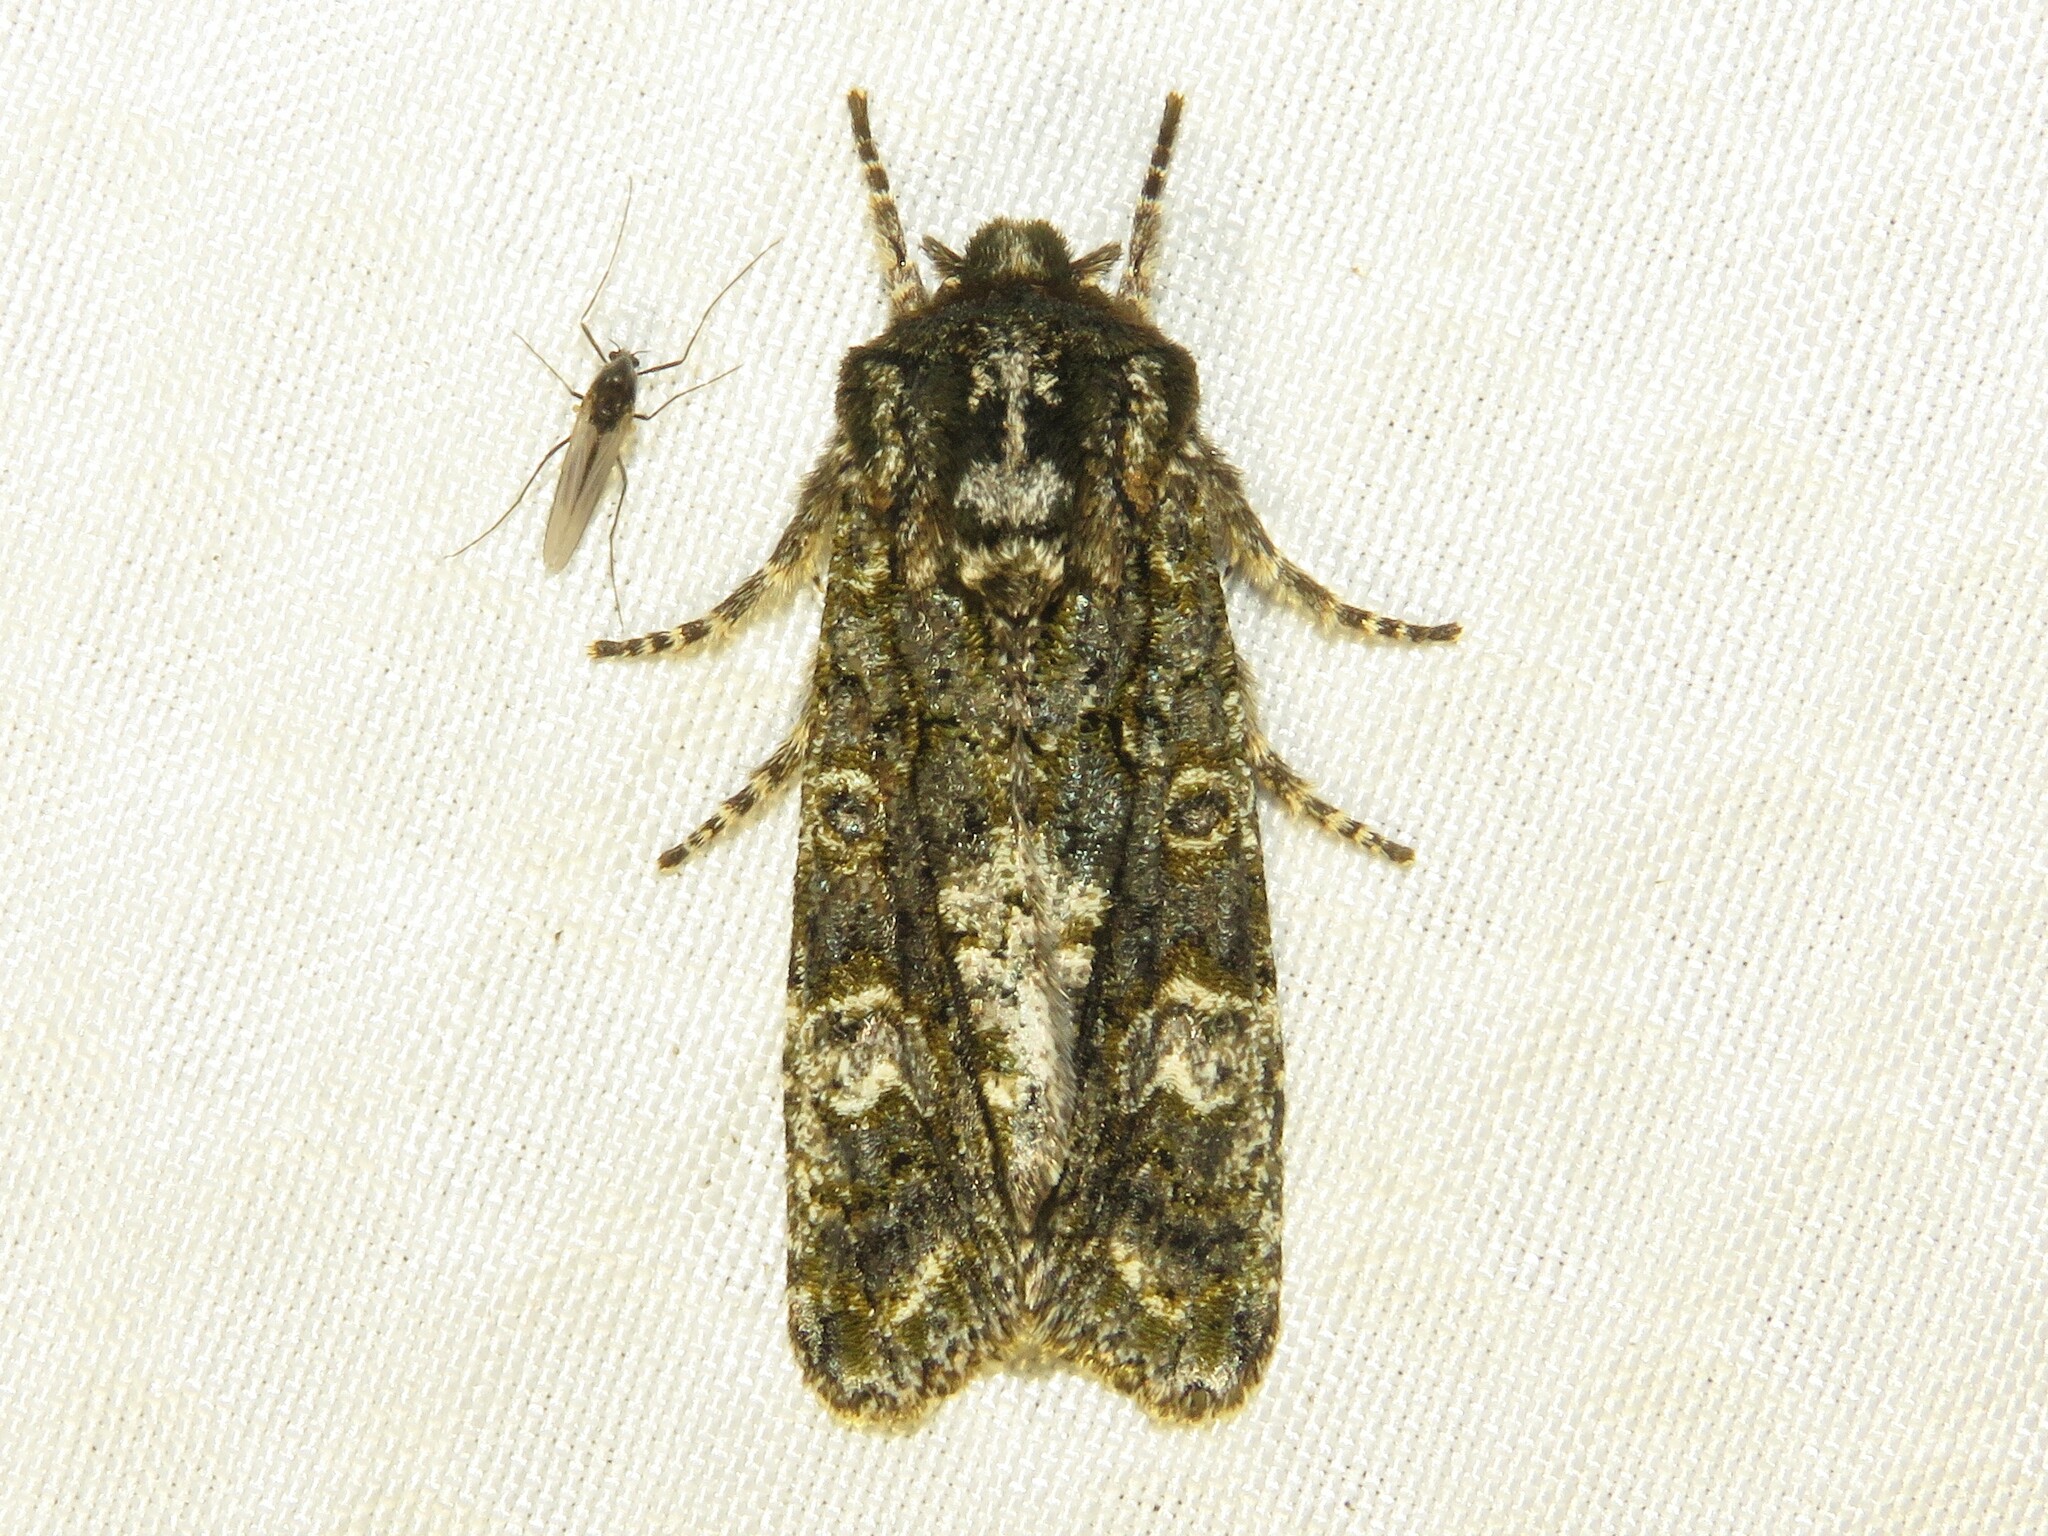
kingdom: Animalia
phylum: Arthropoda
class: Insecta
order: Lepidoptera
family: Noctuidae
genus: Psaphida
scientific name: Psaphida grotei
